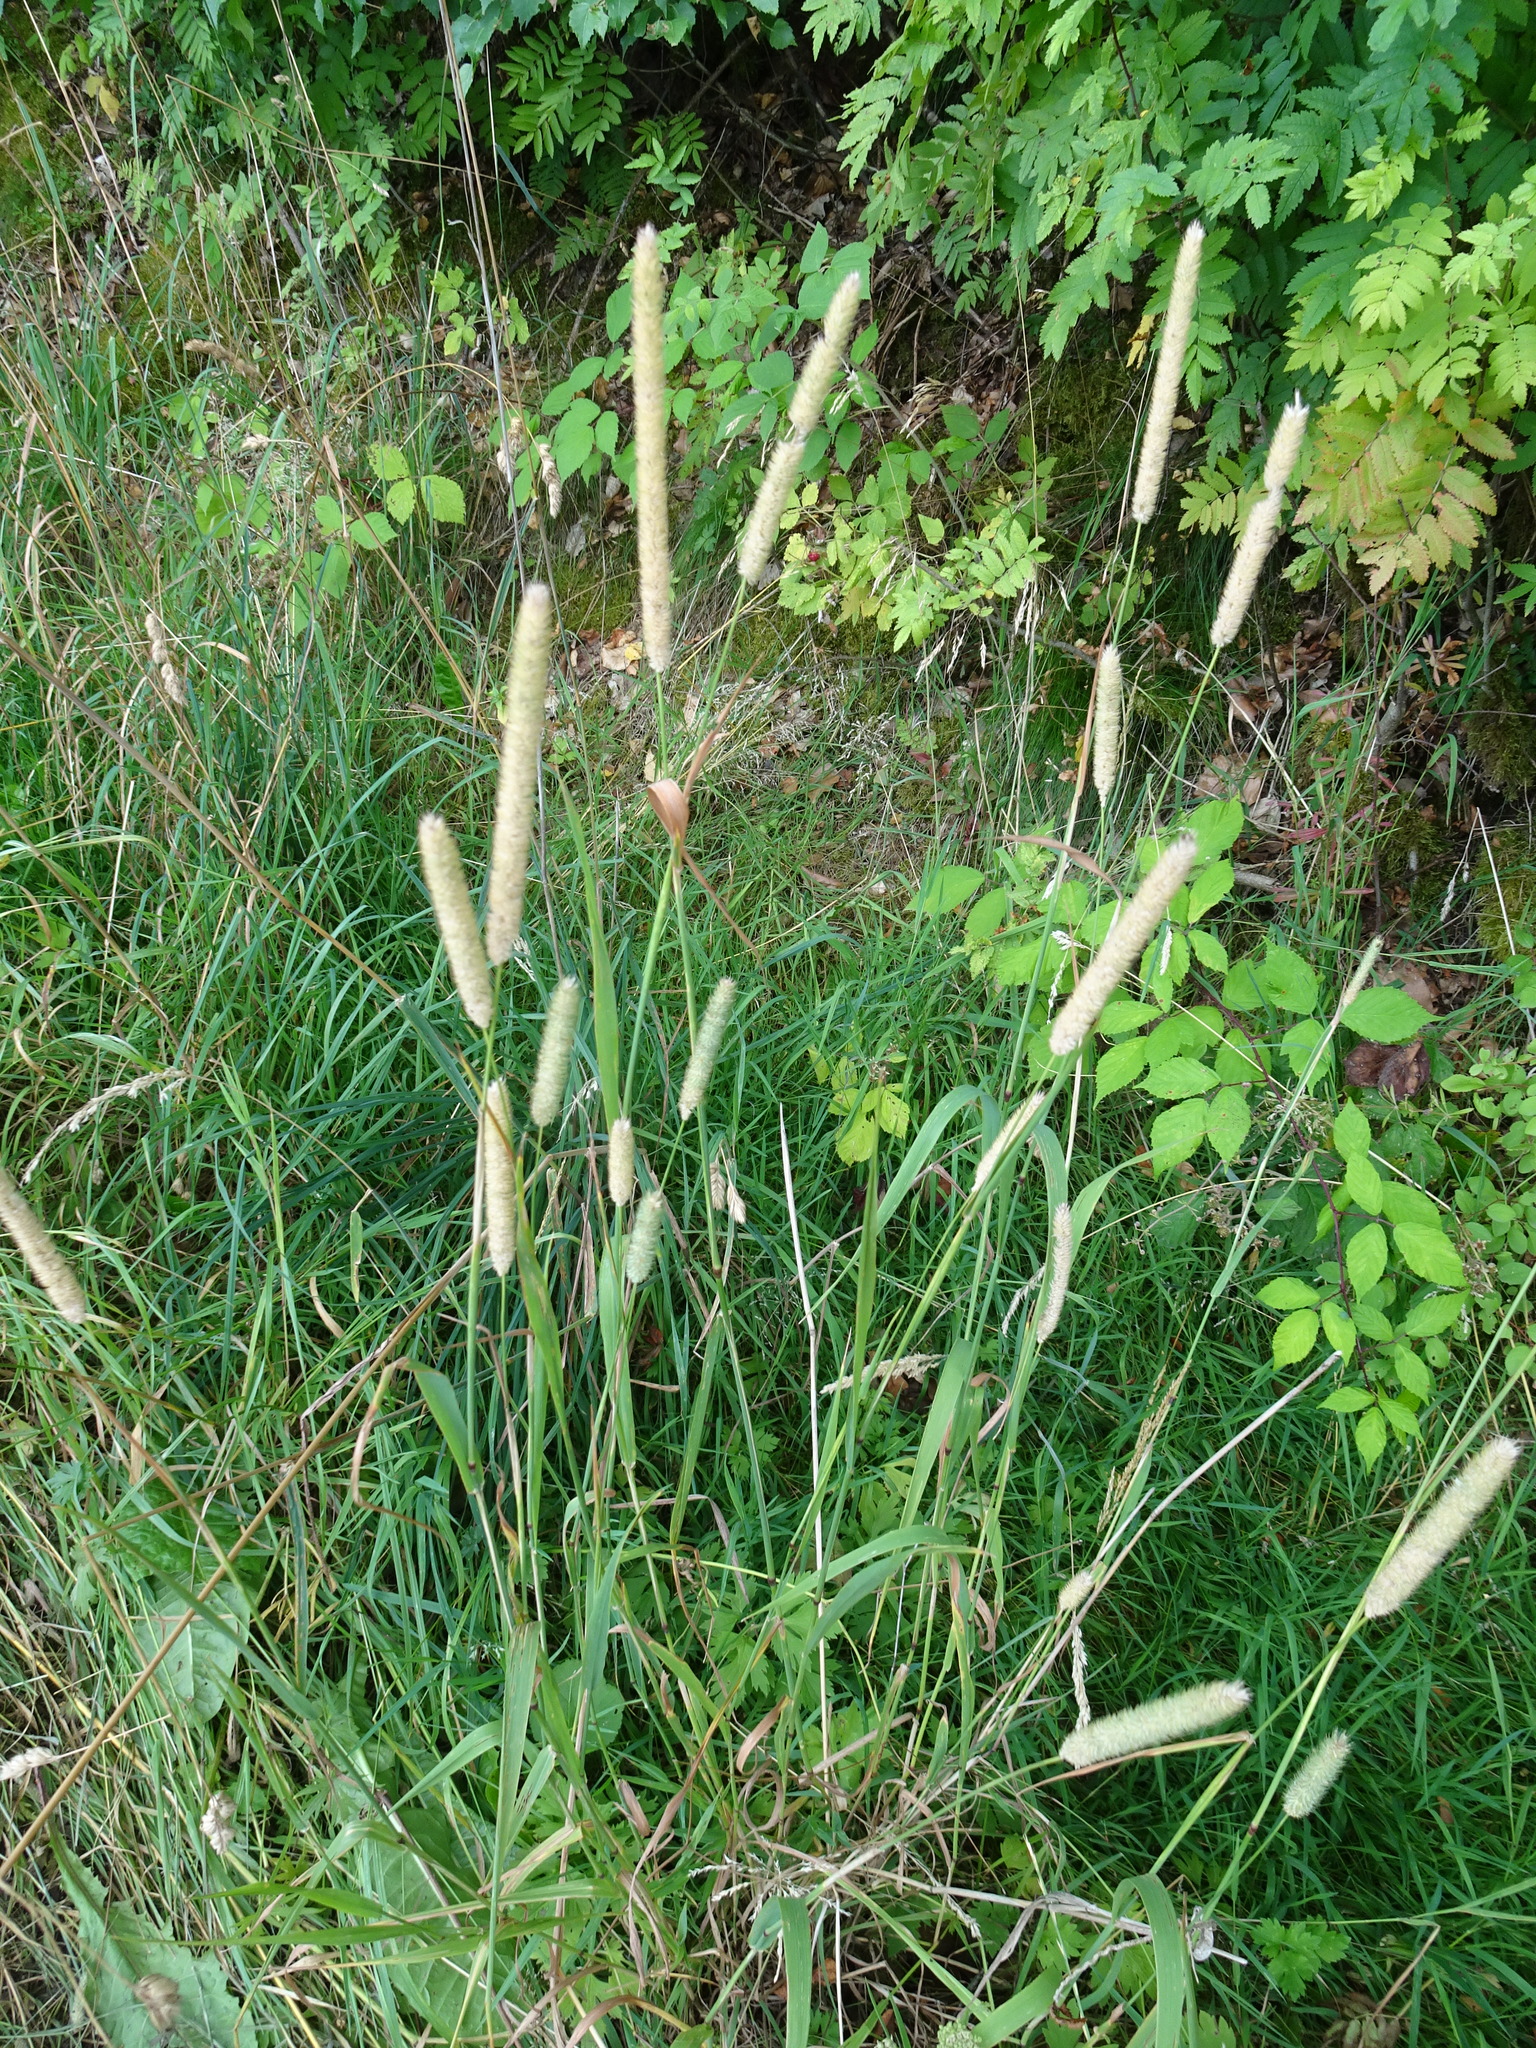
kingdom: Plantae
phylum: Tracheophyta
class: Liliopsida
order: Poales
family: Poaceae
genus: Phleum
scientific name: Phleum pratense
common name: Timothy grass
